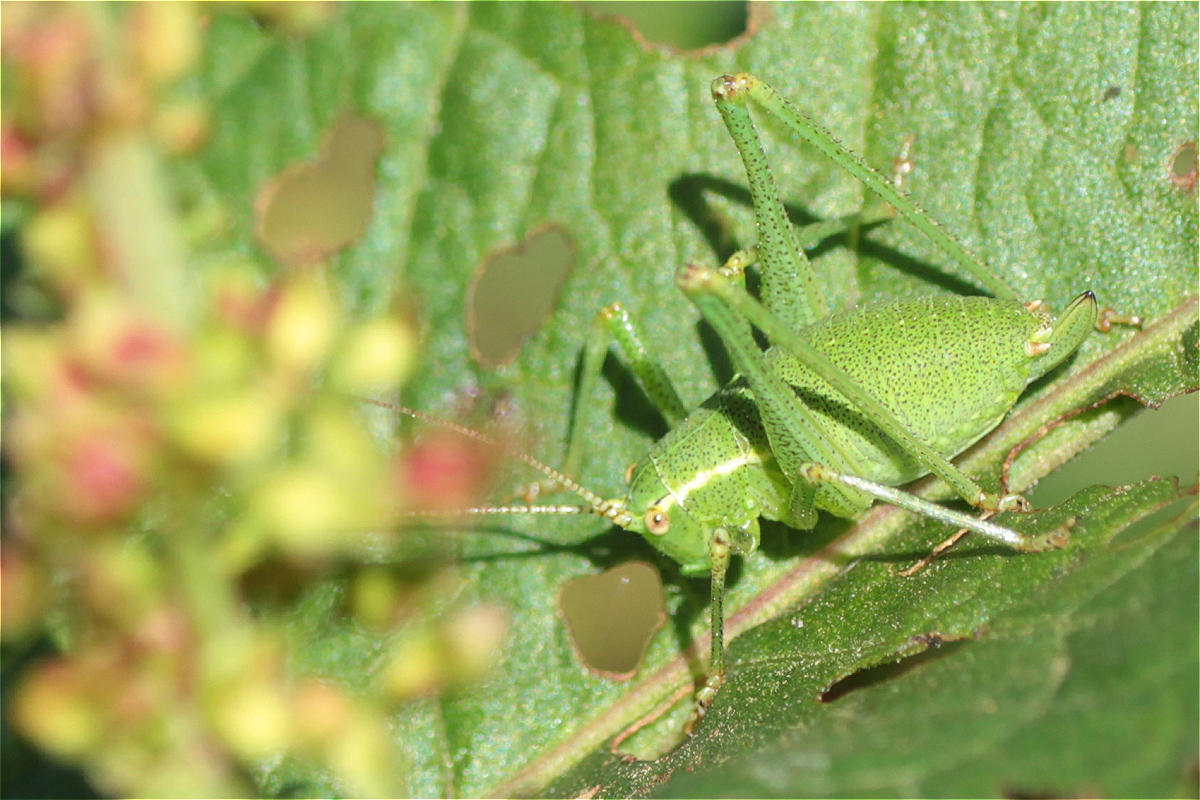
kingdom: Animalia
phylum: Arthropoda
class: Insecta
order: Orthoptera
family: Tettigoniidae
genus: Leptophyes
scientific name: Leptophyes punctatissima
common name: Speckled bush-cricket
